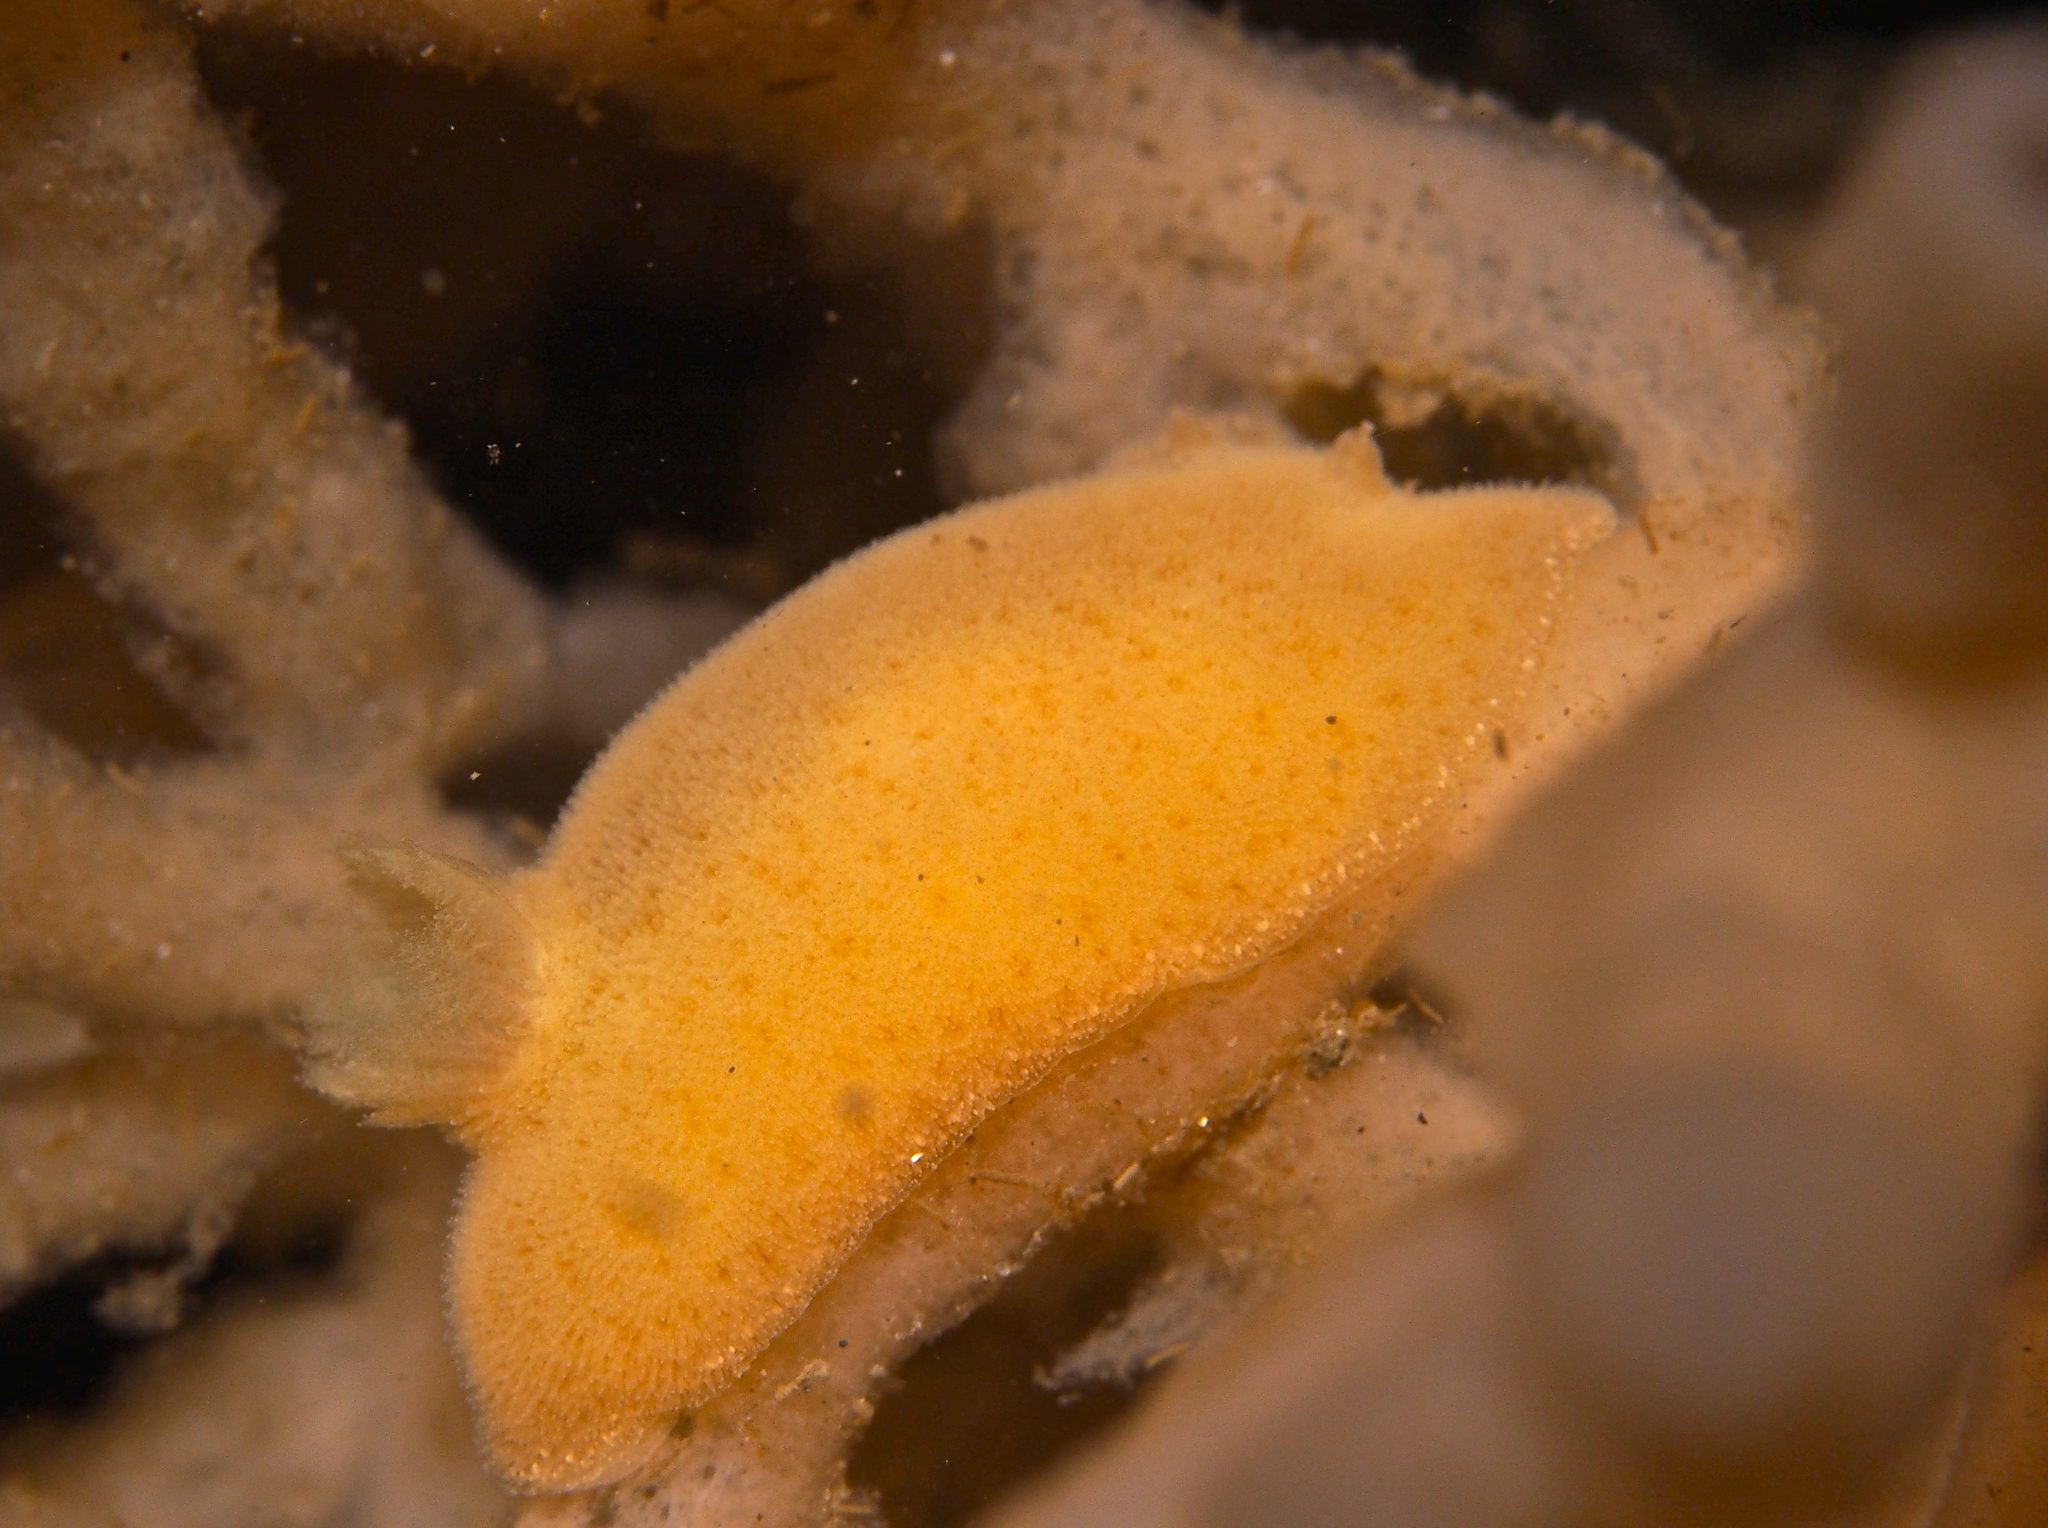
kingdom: Animalia
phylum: Mollusca
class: Gastropoda
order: Nudibranchia
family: Discodorididae
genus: Jorunna
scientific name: Jorunna tomentosa
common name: Grey sea slug
